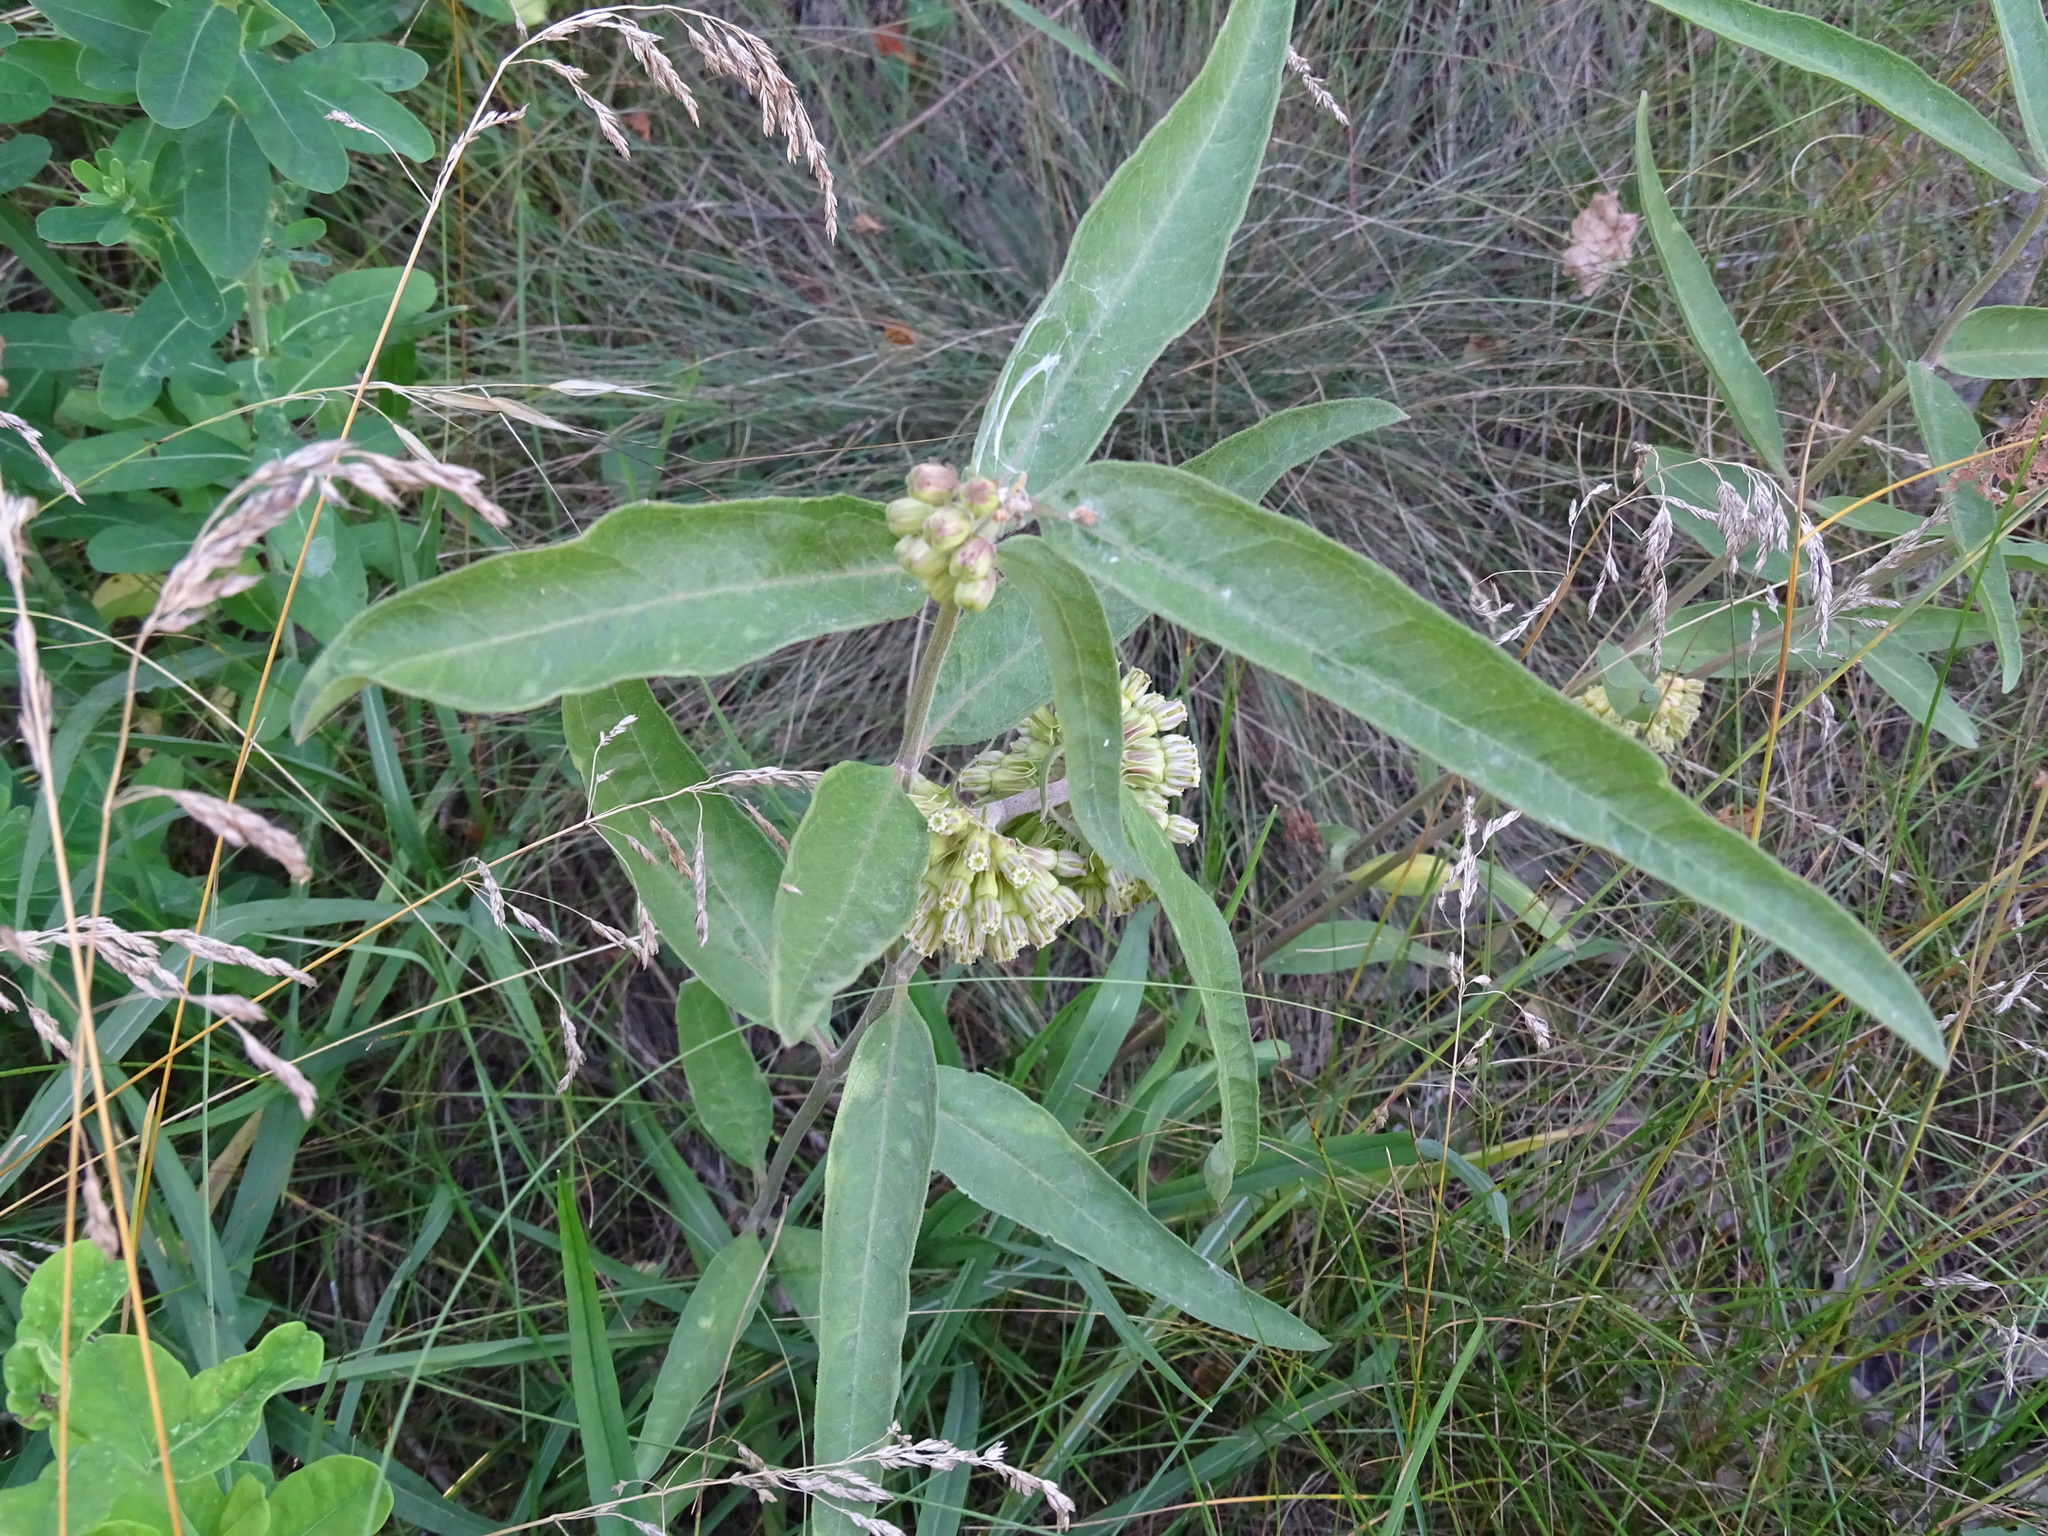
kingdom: Plantae
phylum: Tracheophyta
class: Magnoliopsida
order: Gentianales
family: Apocynaceae
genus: Asclepias
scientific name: Asclepias viridiflora
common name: Green comet milkweed
